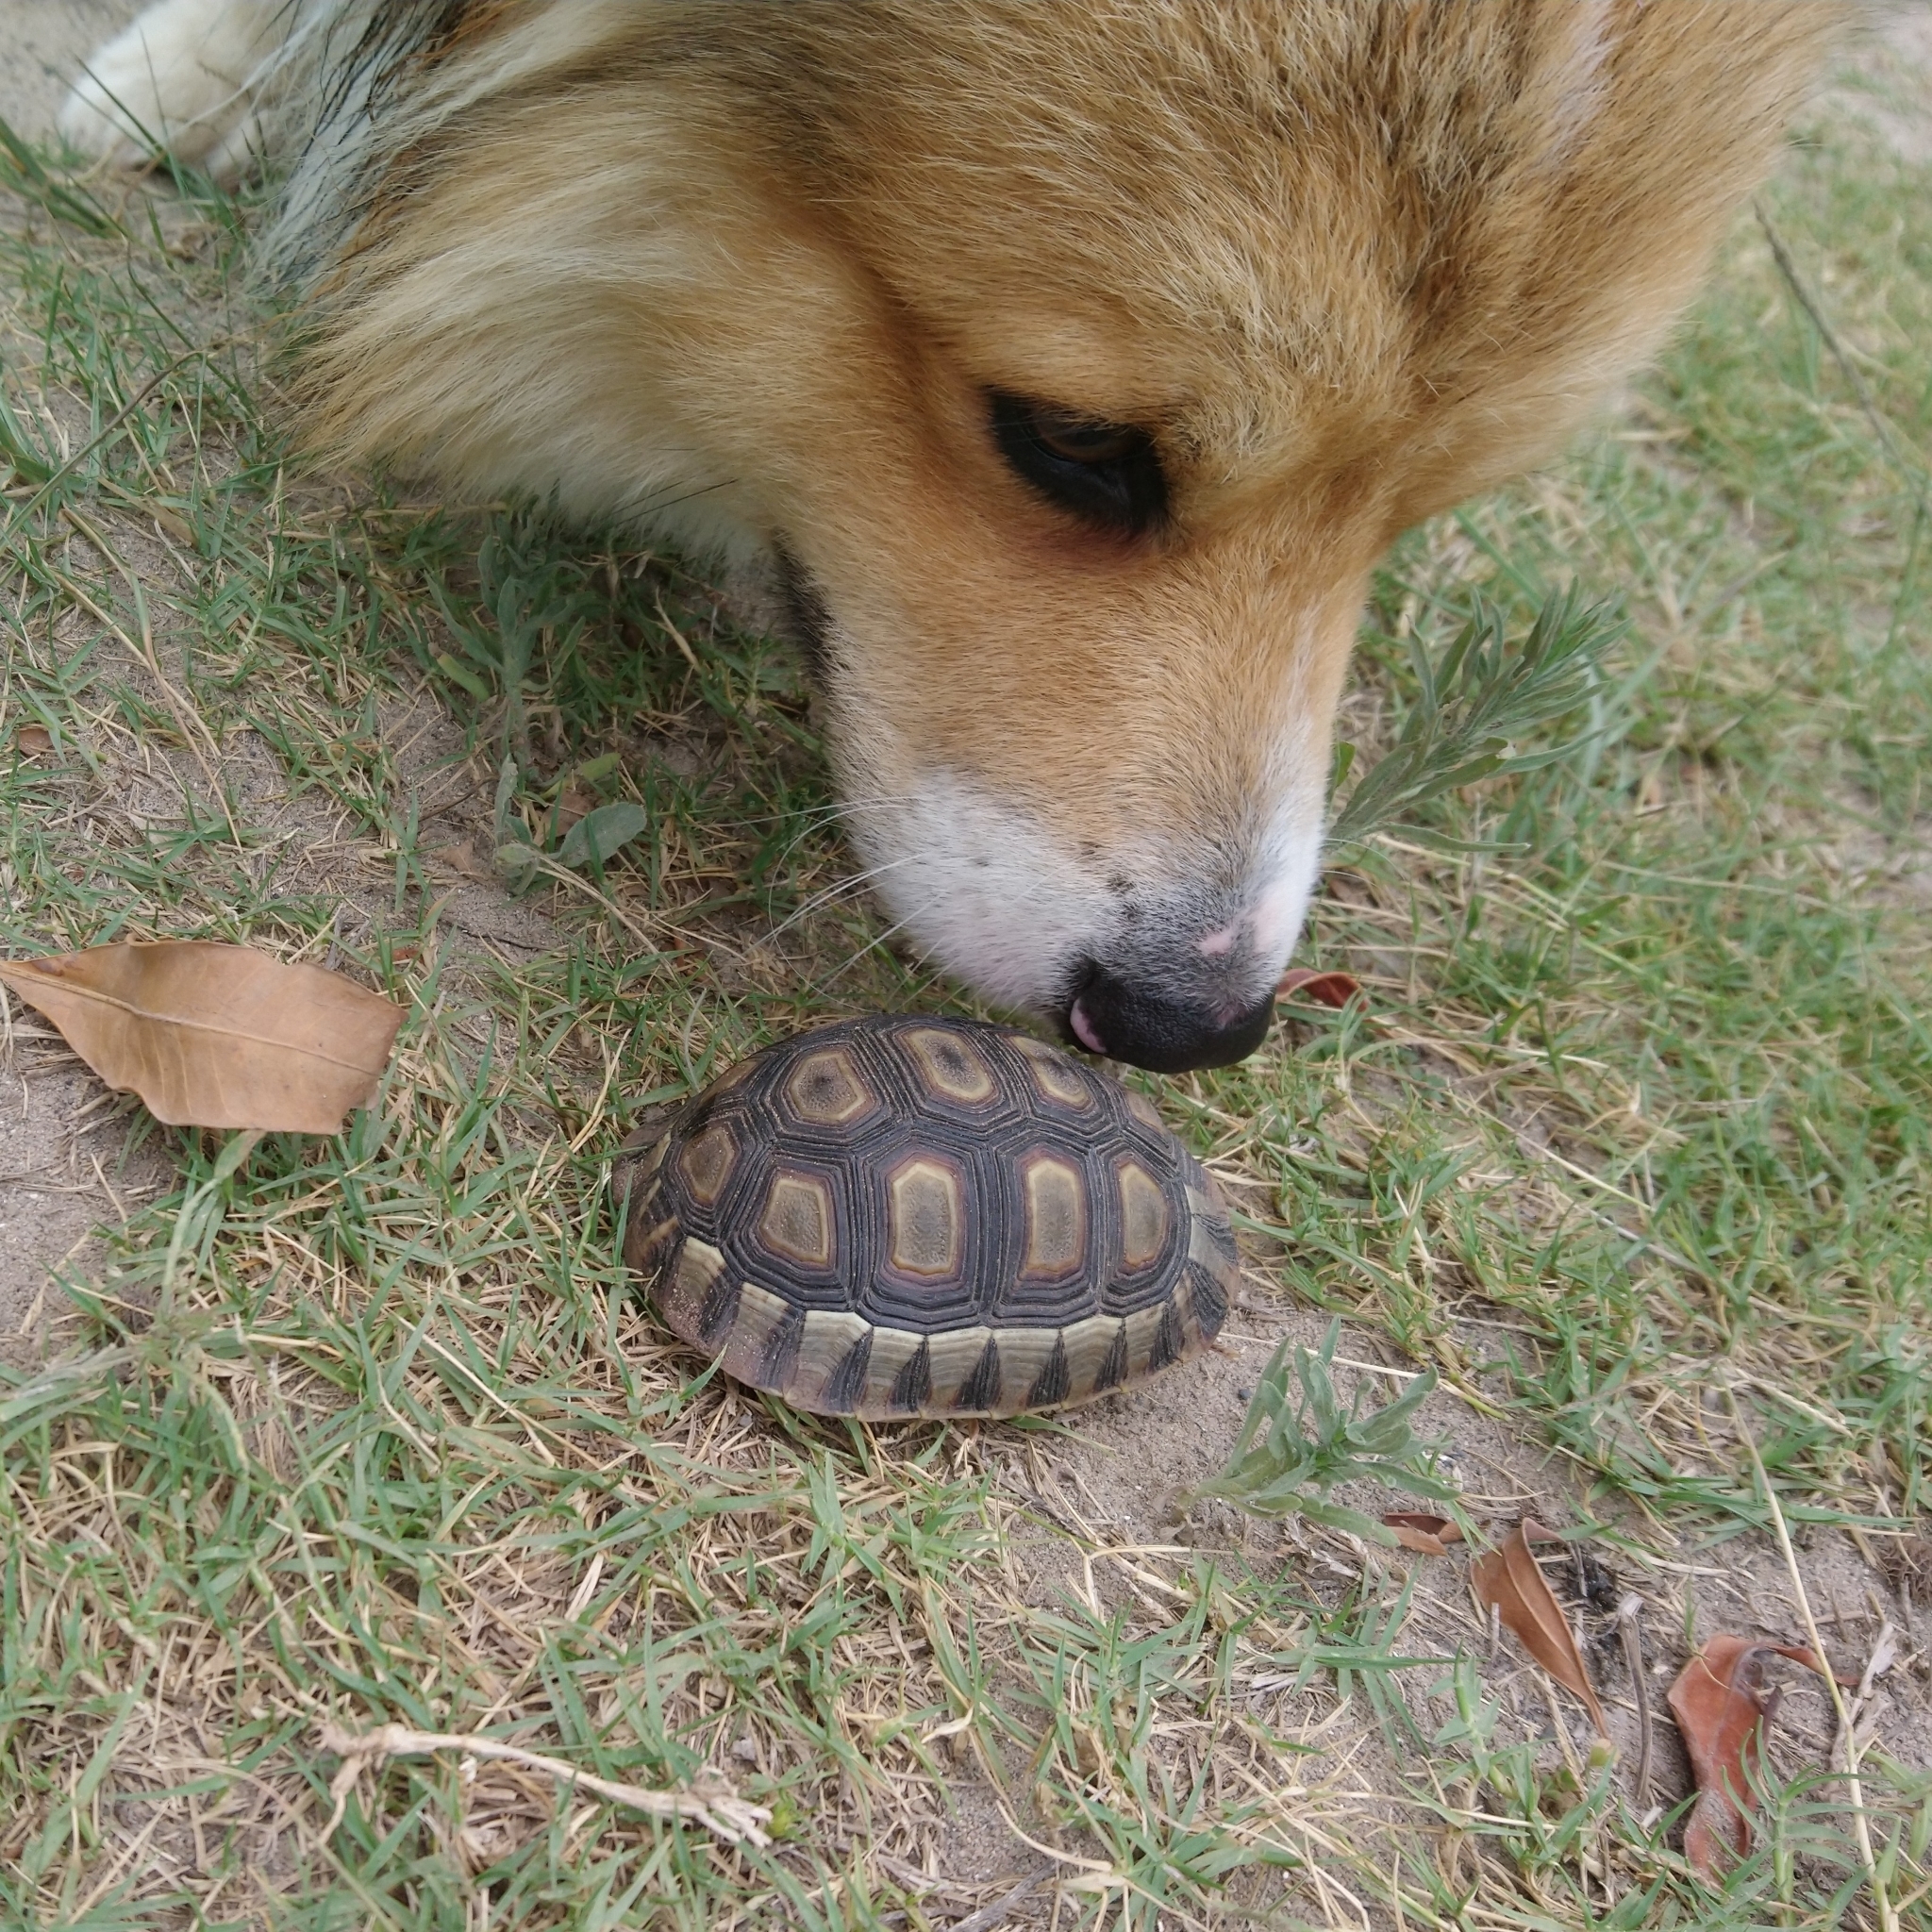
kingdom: Animalia
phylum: Chordata
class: Testudines
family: Testudinidae
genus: Chersina
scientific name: Chersina angulata
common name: South african bowsprit tortoise
